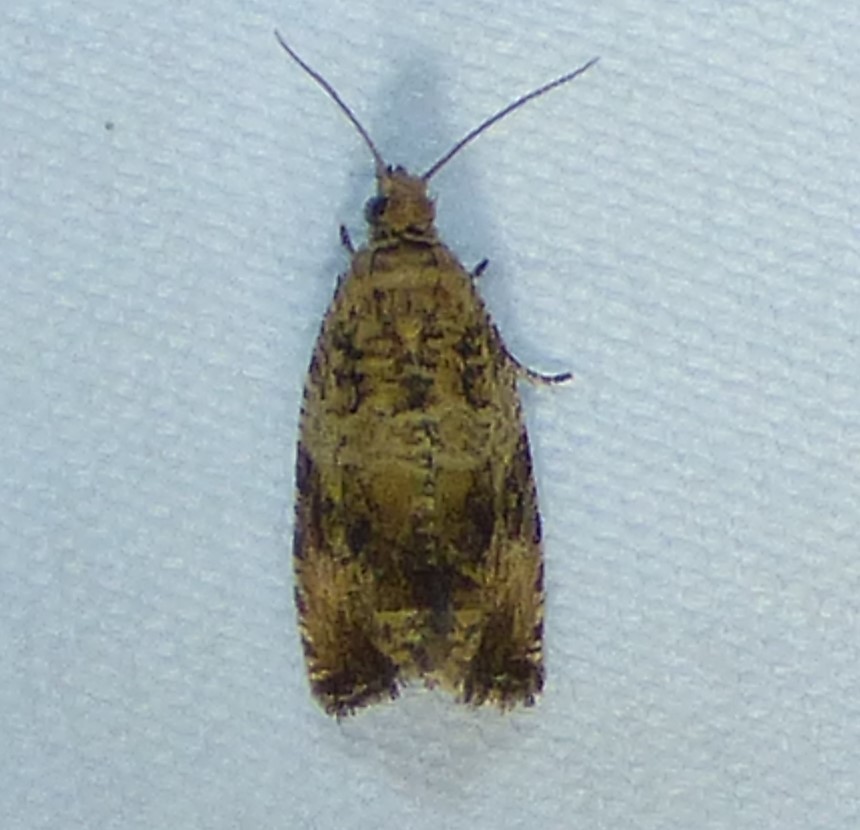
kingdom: Animalia
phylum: Arthropoda
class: Insecta
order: Lepidoptera
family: Tortricidae
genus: Celypha
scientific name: Celypha cespitana
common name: Thyme marble
